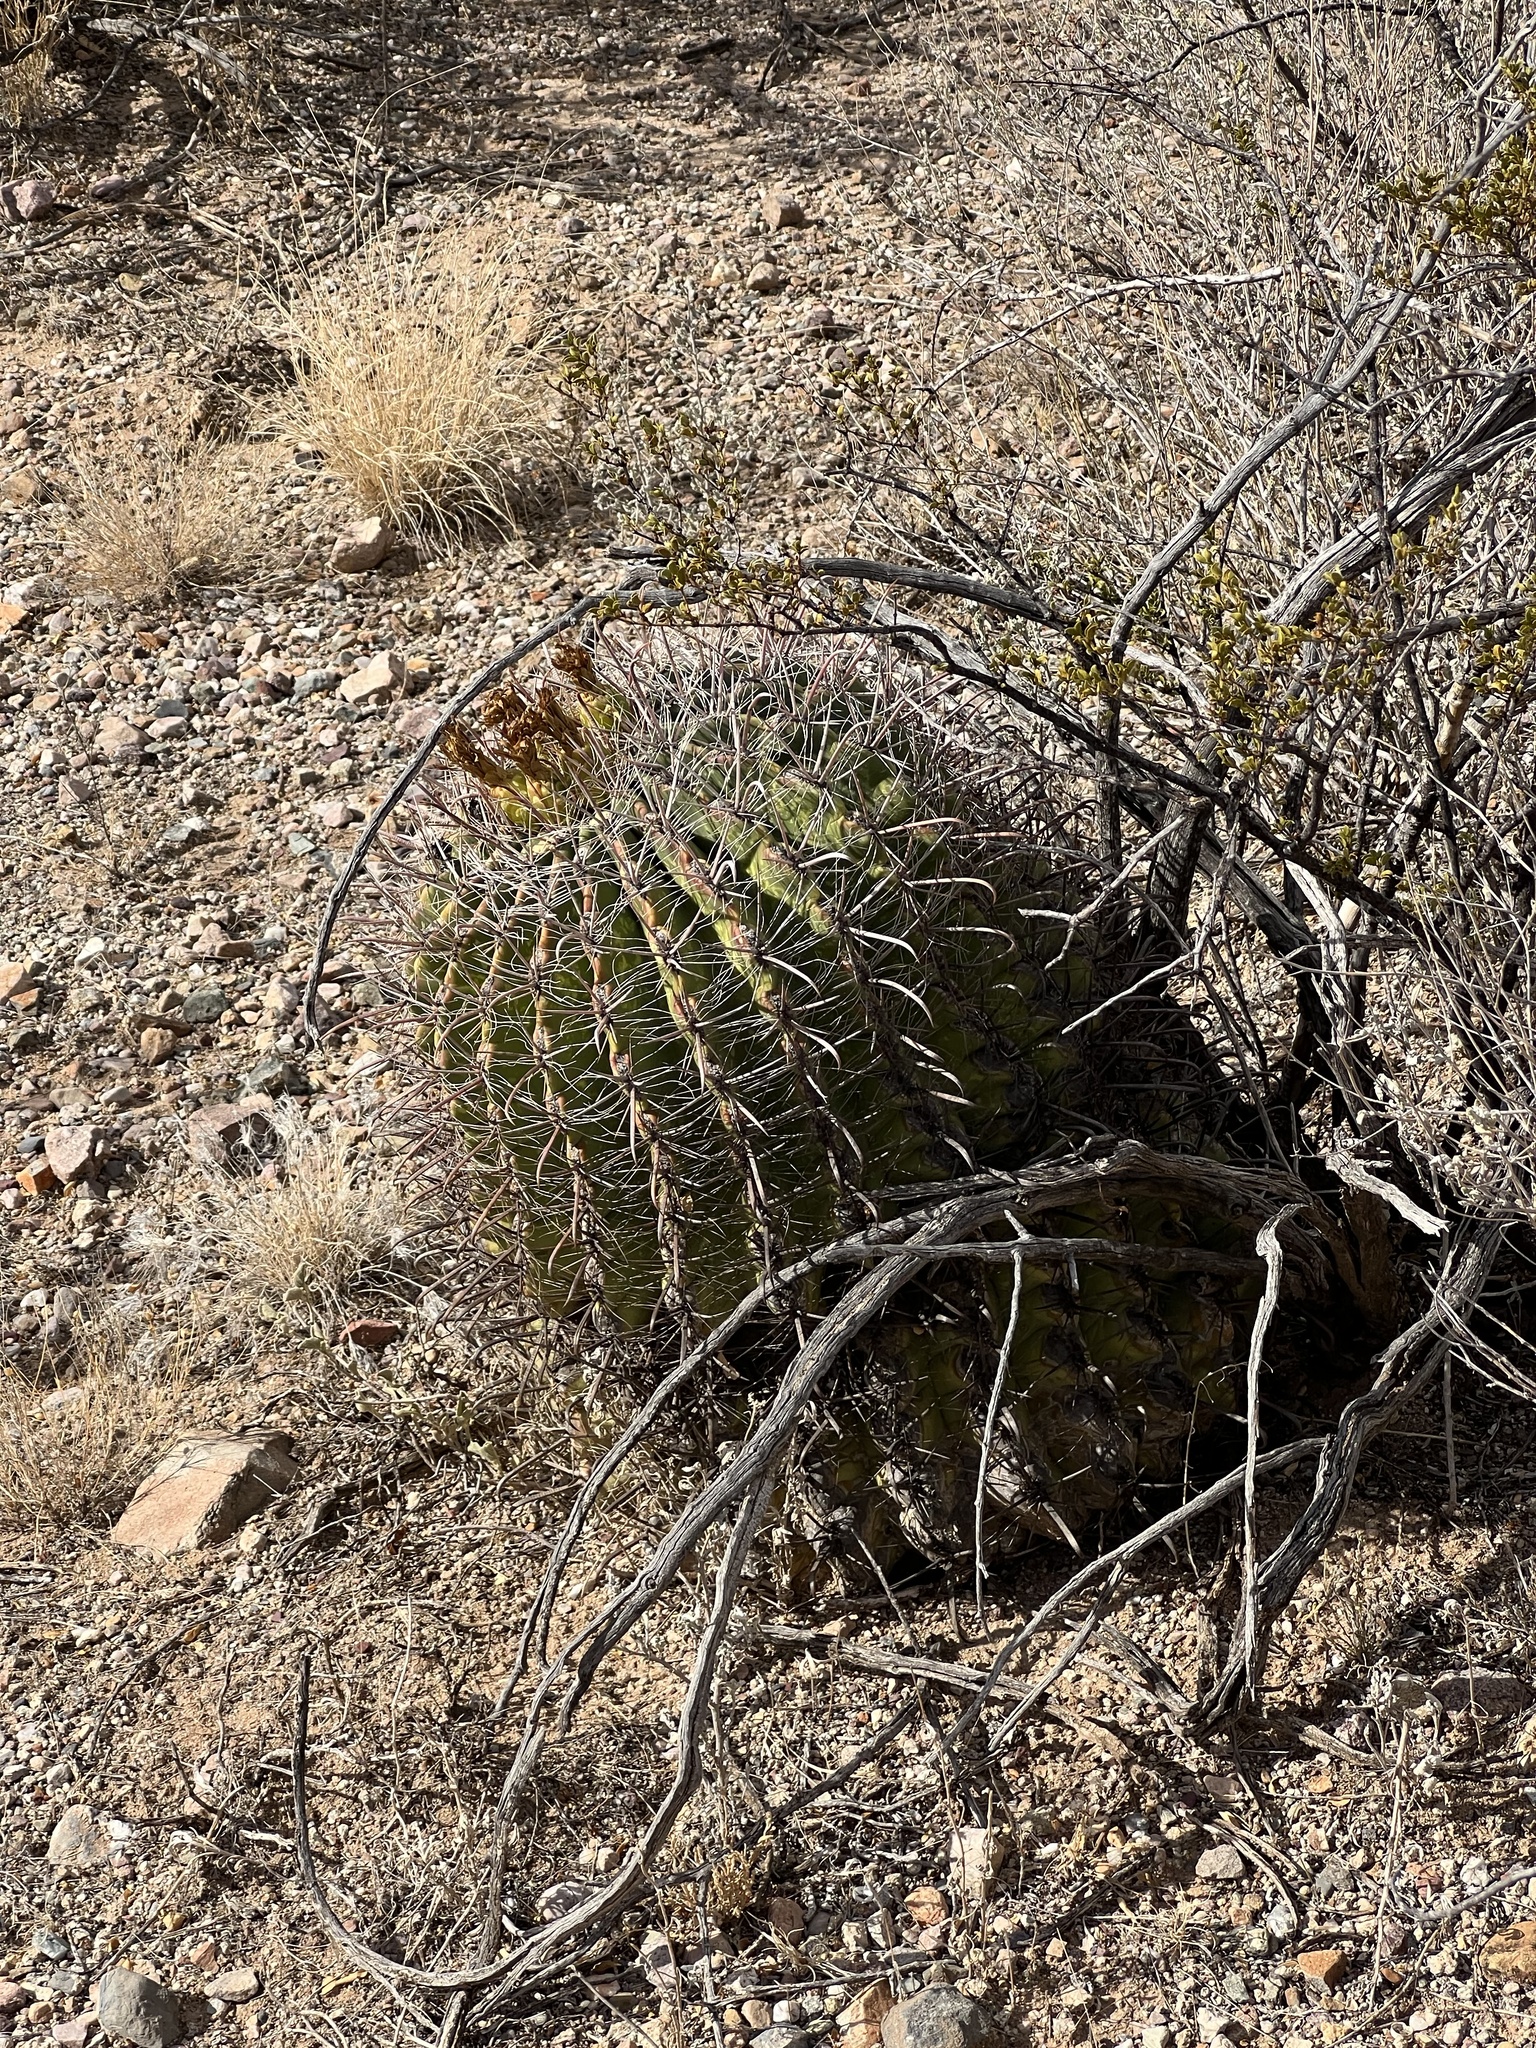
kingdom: Plantae
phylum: Tracheophyta
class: Magnoliopsida
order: Caryophyllales
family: Cactaceae
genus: Ferocactus
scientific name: Ferocactus wislizeni
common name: Candy barrel cactus
